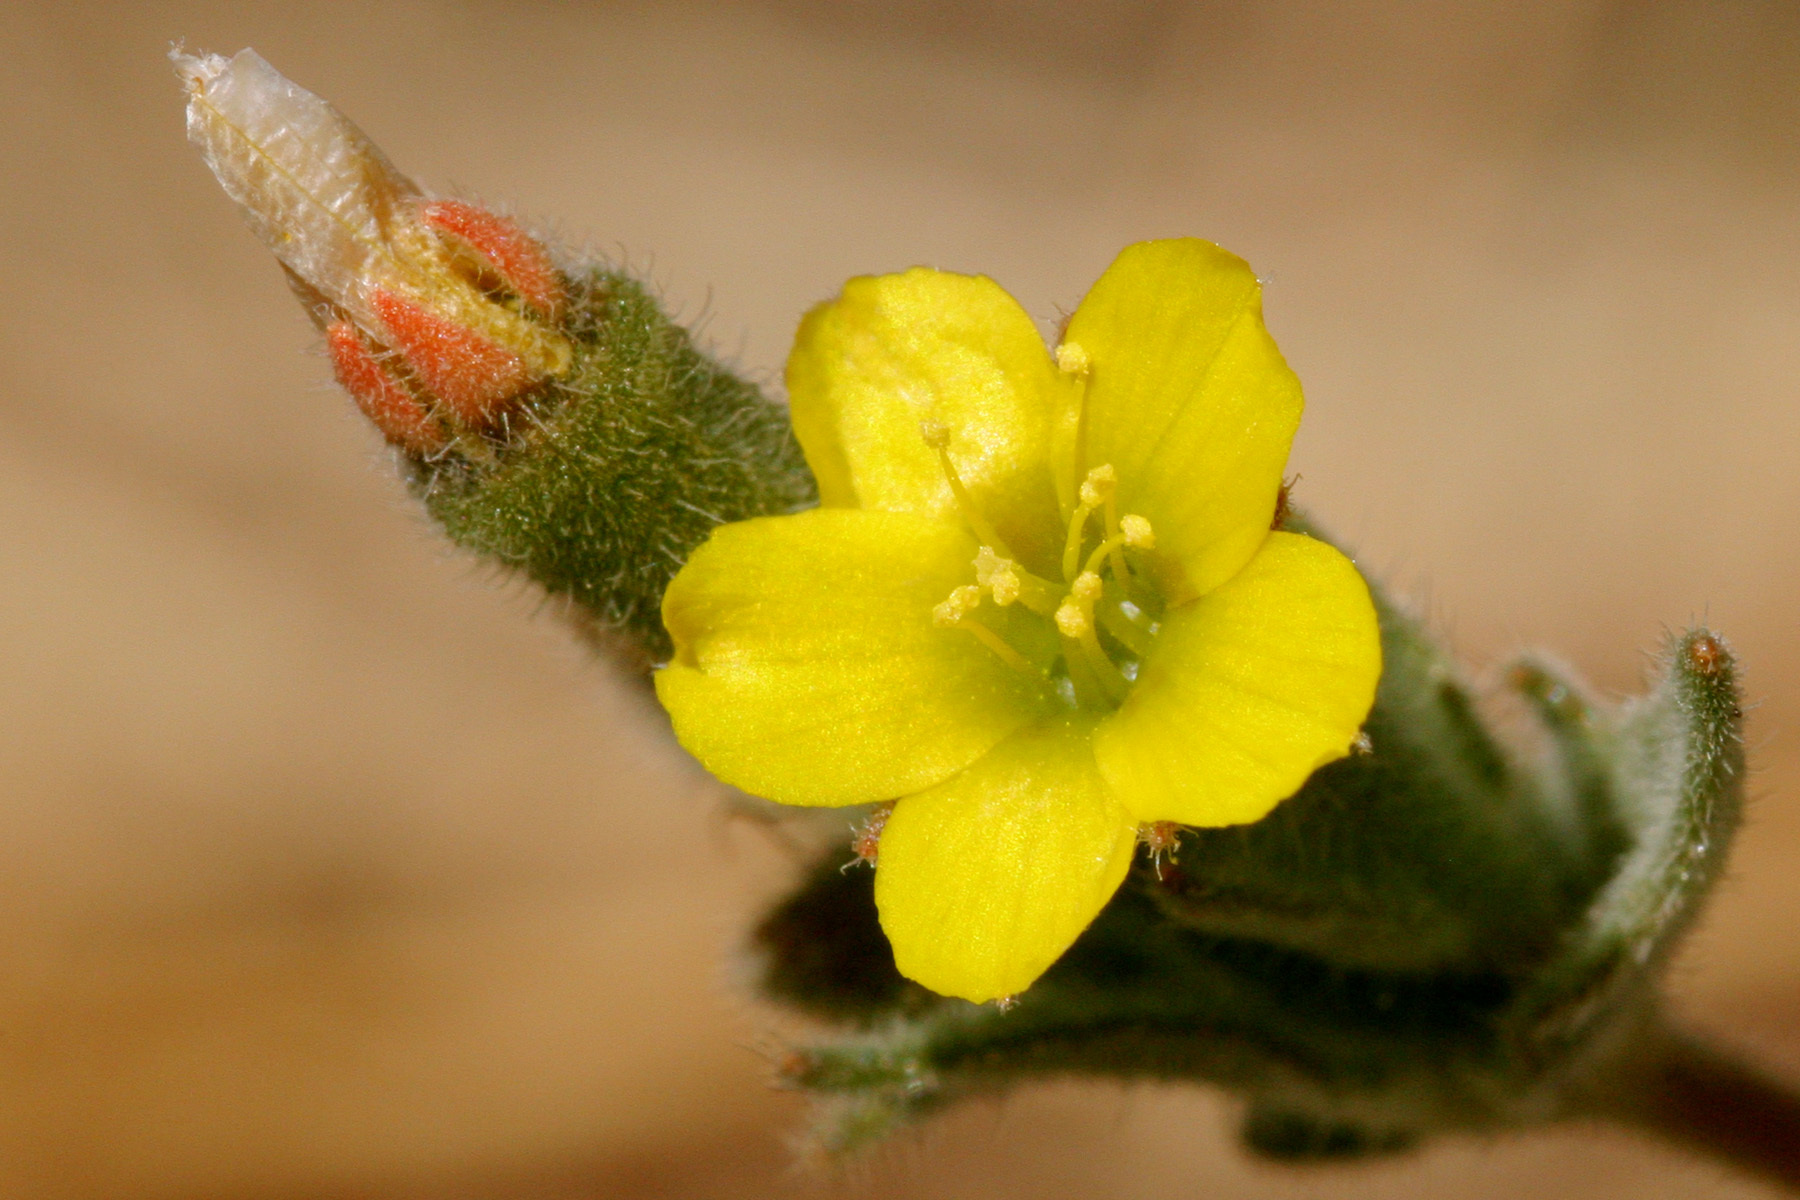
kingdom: Plantae
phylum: Tracheophyta
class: Magnoliopsida
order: Cornales
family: Loasaceae
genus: Mentzelia
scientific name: Mentzelia montana
